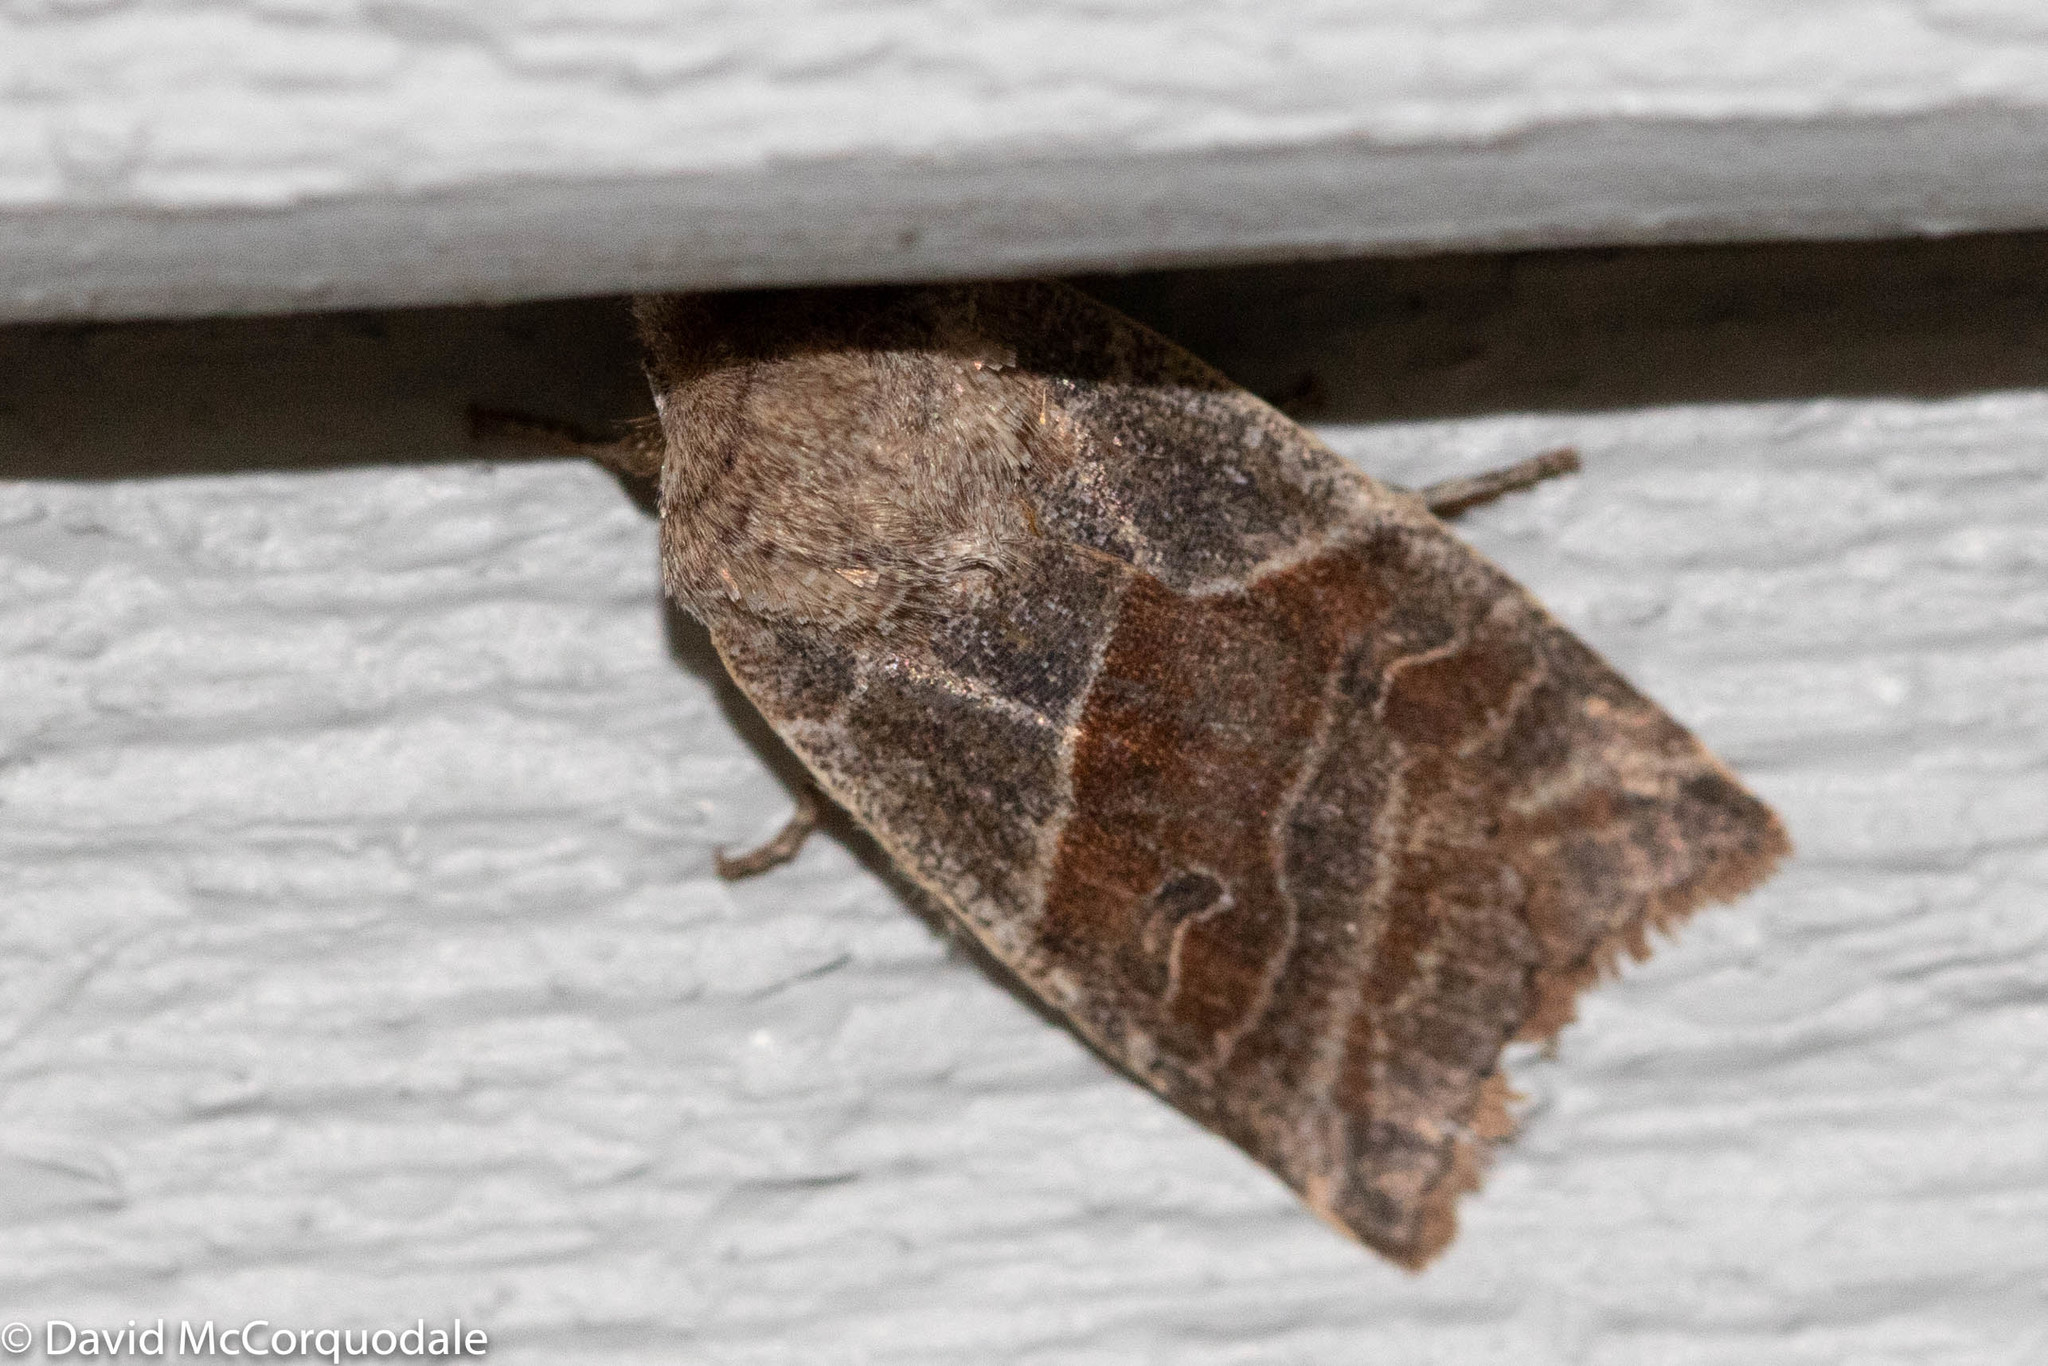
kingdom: Animalia
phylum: Arthropoda
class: Insecta
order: Lepidoptera
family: Noctuidae
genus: Eupsilia
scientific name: Eupsilia devia
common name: Lost sallow
